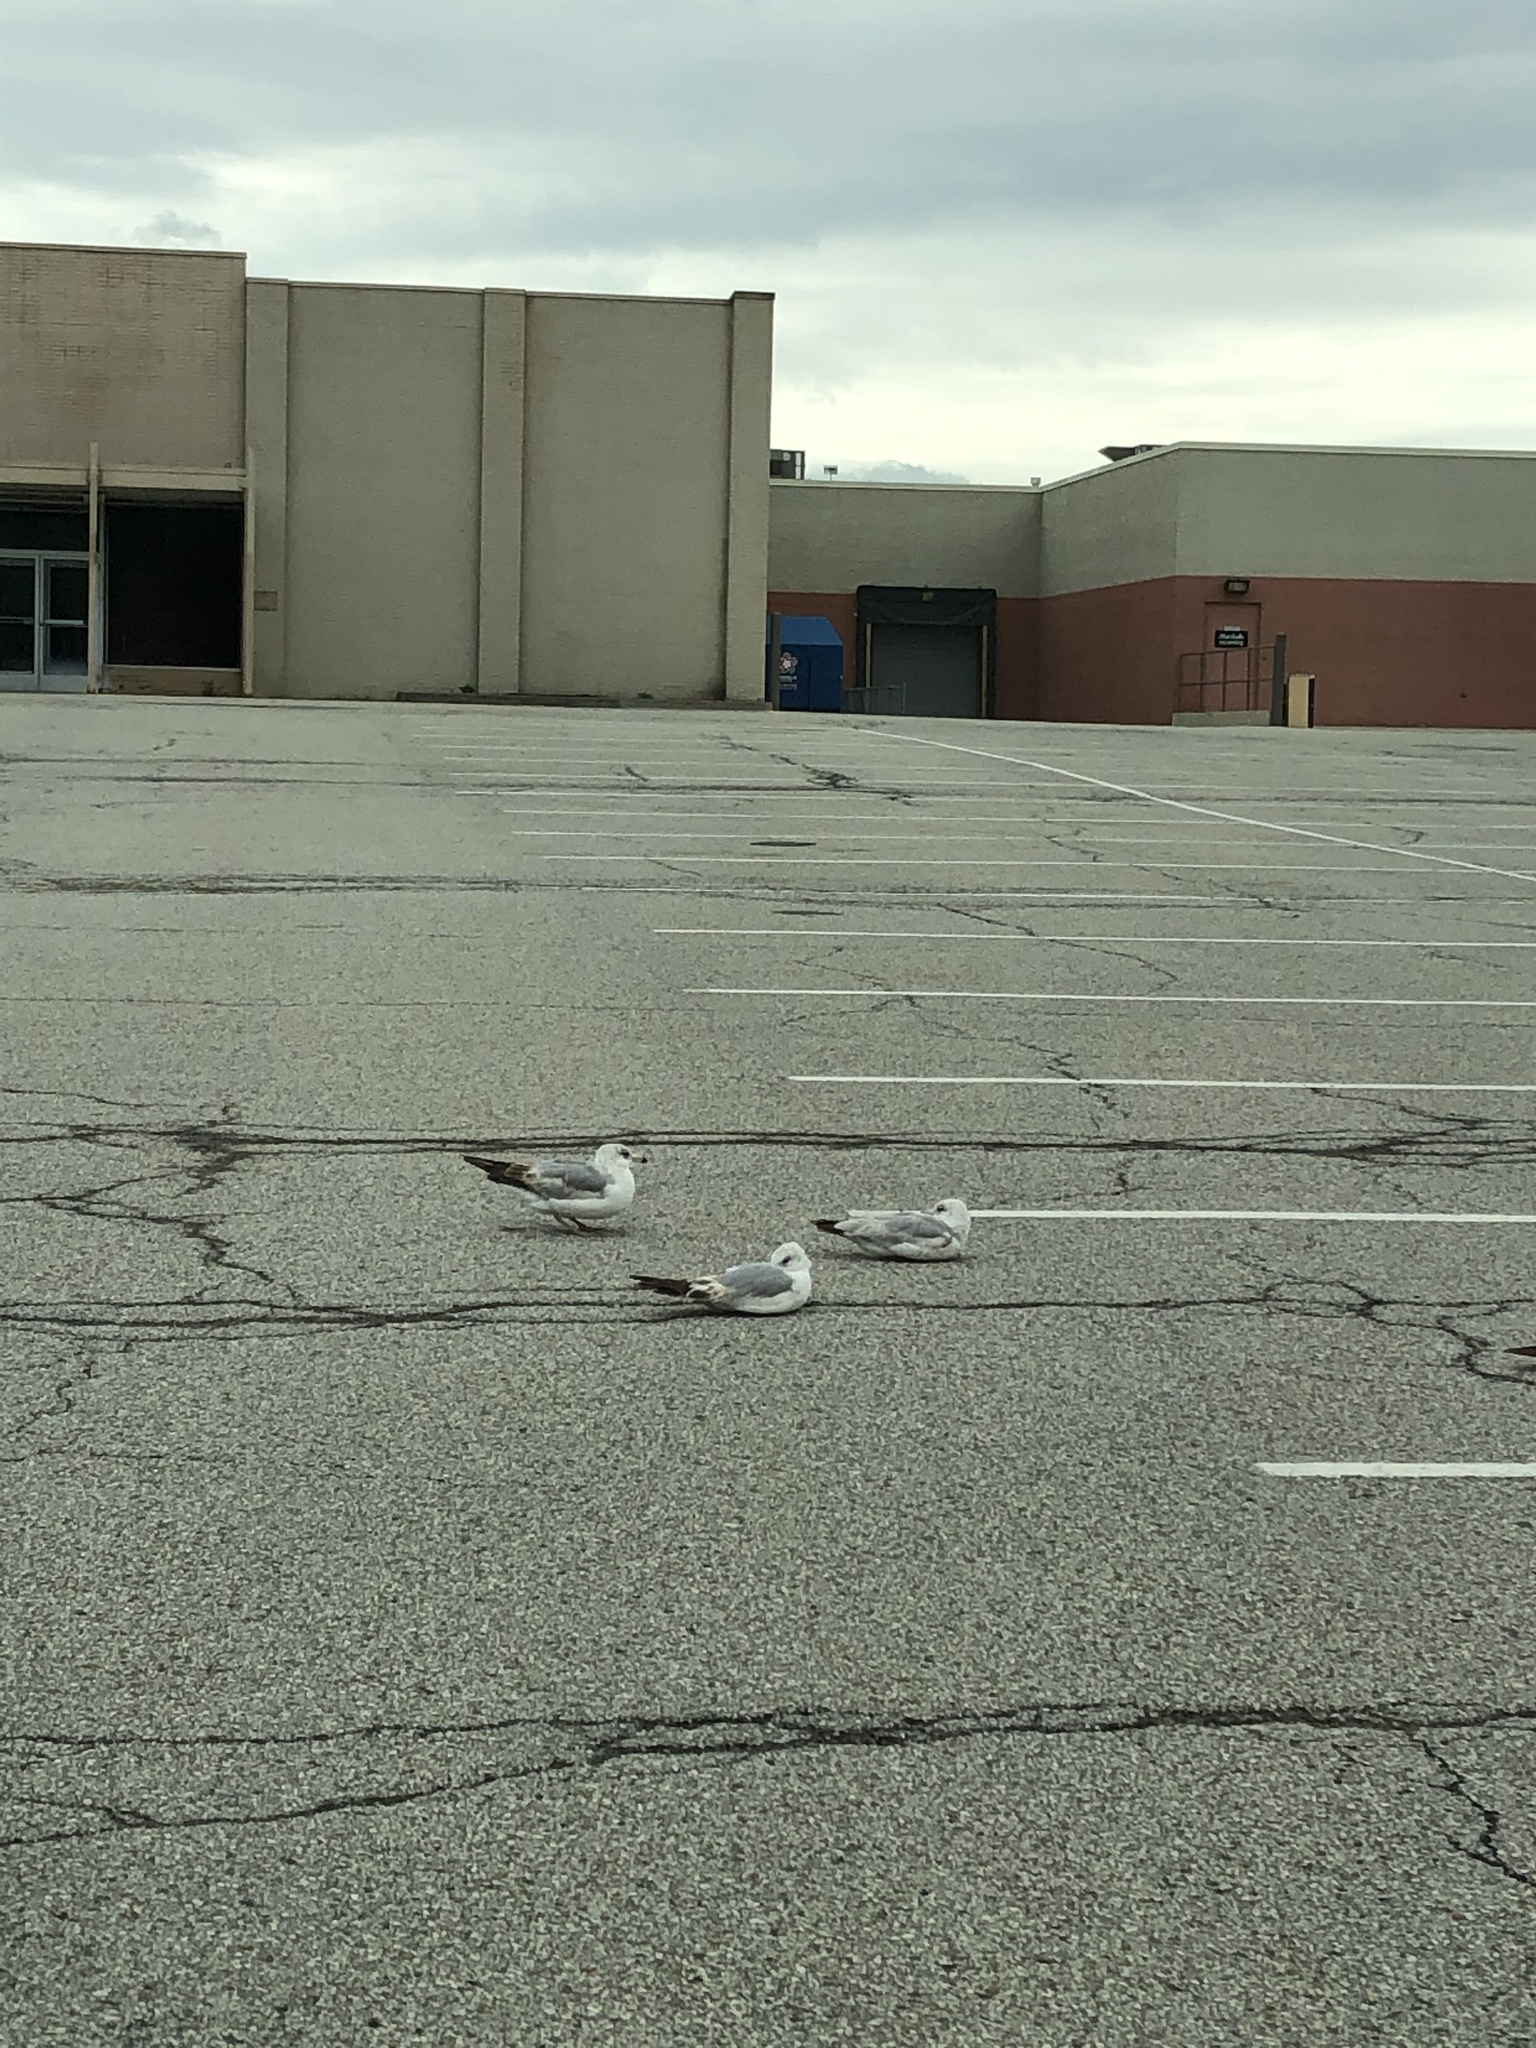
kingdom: Animalia
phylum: Chordata
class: Aves
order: Charadriiformes
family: Laridae
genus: Larus
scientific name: Larus delawarensis
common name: Ring-billed gull
